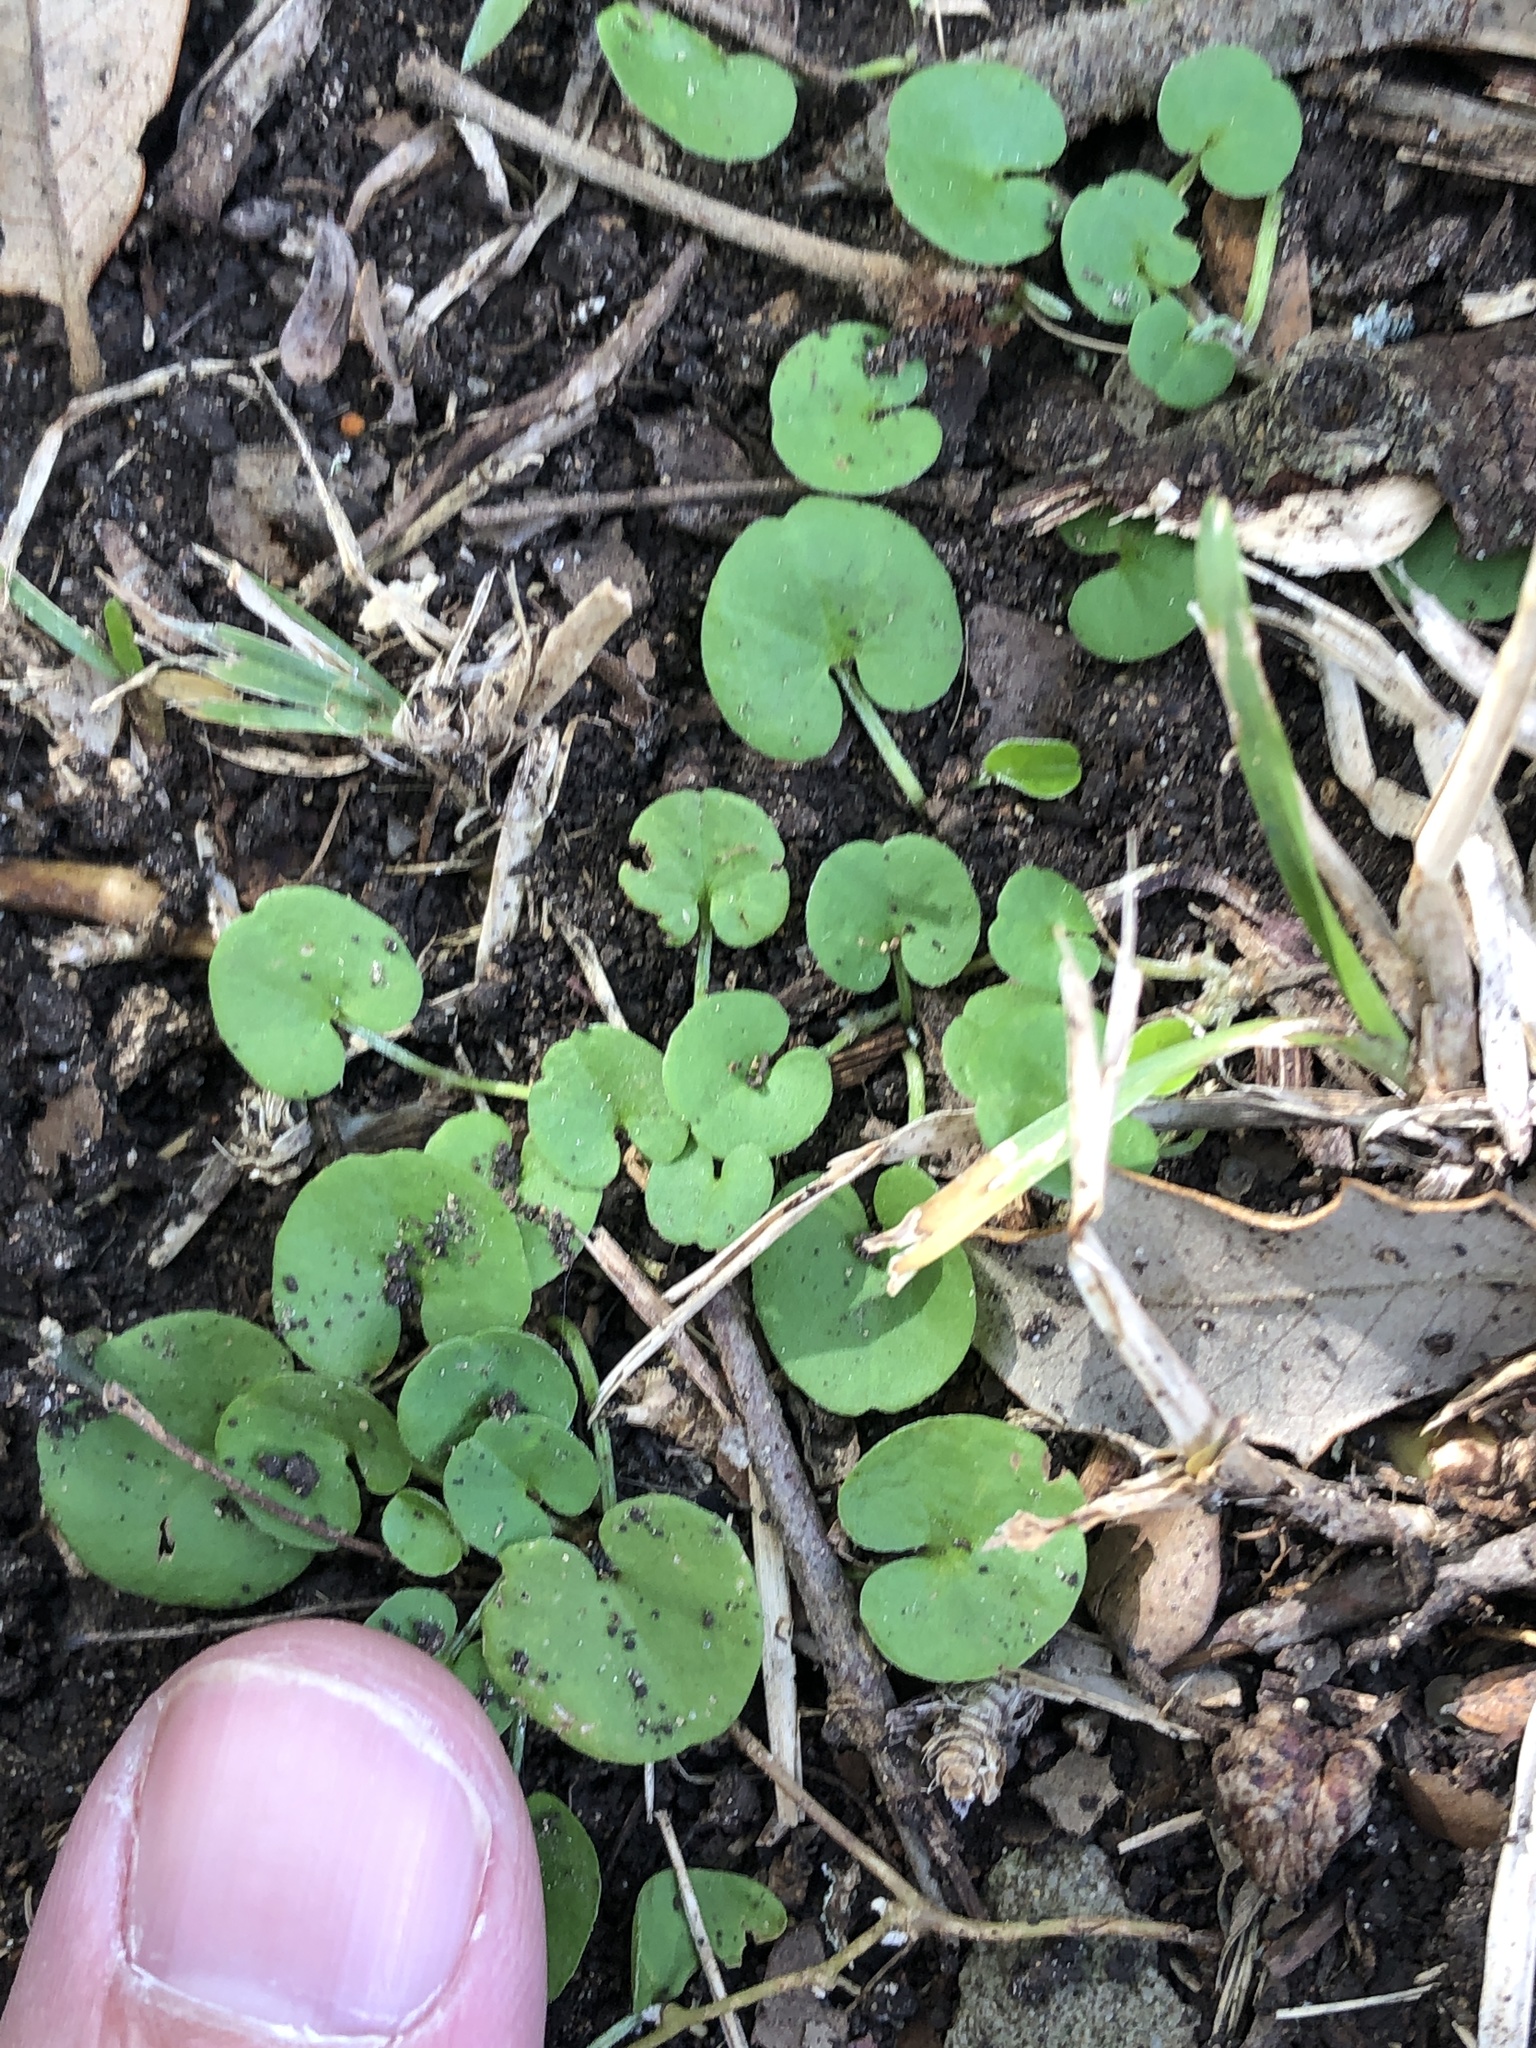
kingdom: Plantae
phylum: Tracheophyta
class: Magnoliopsida
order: Solanales
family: Convolvulaceae
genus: Dichondra
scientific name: Dichondra carolinensis
